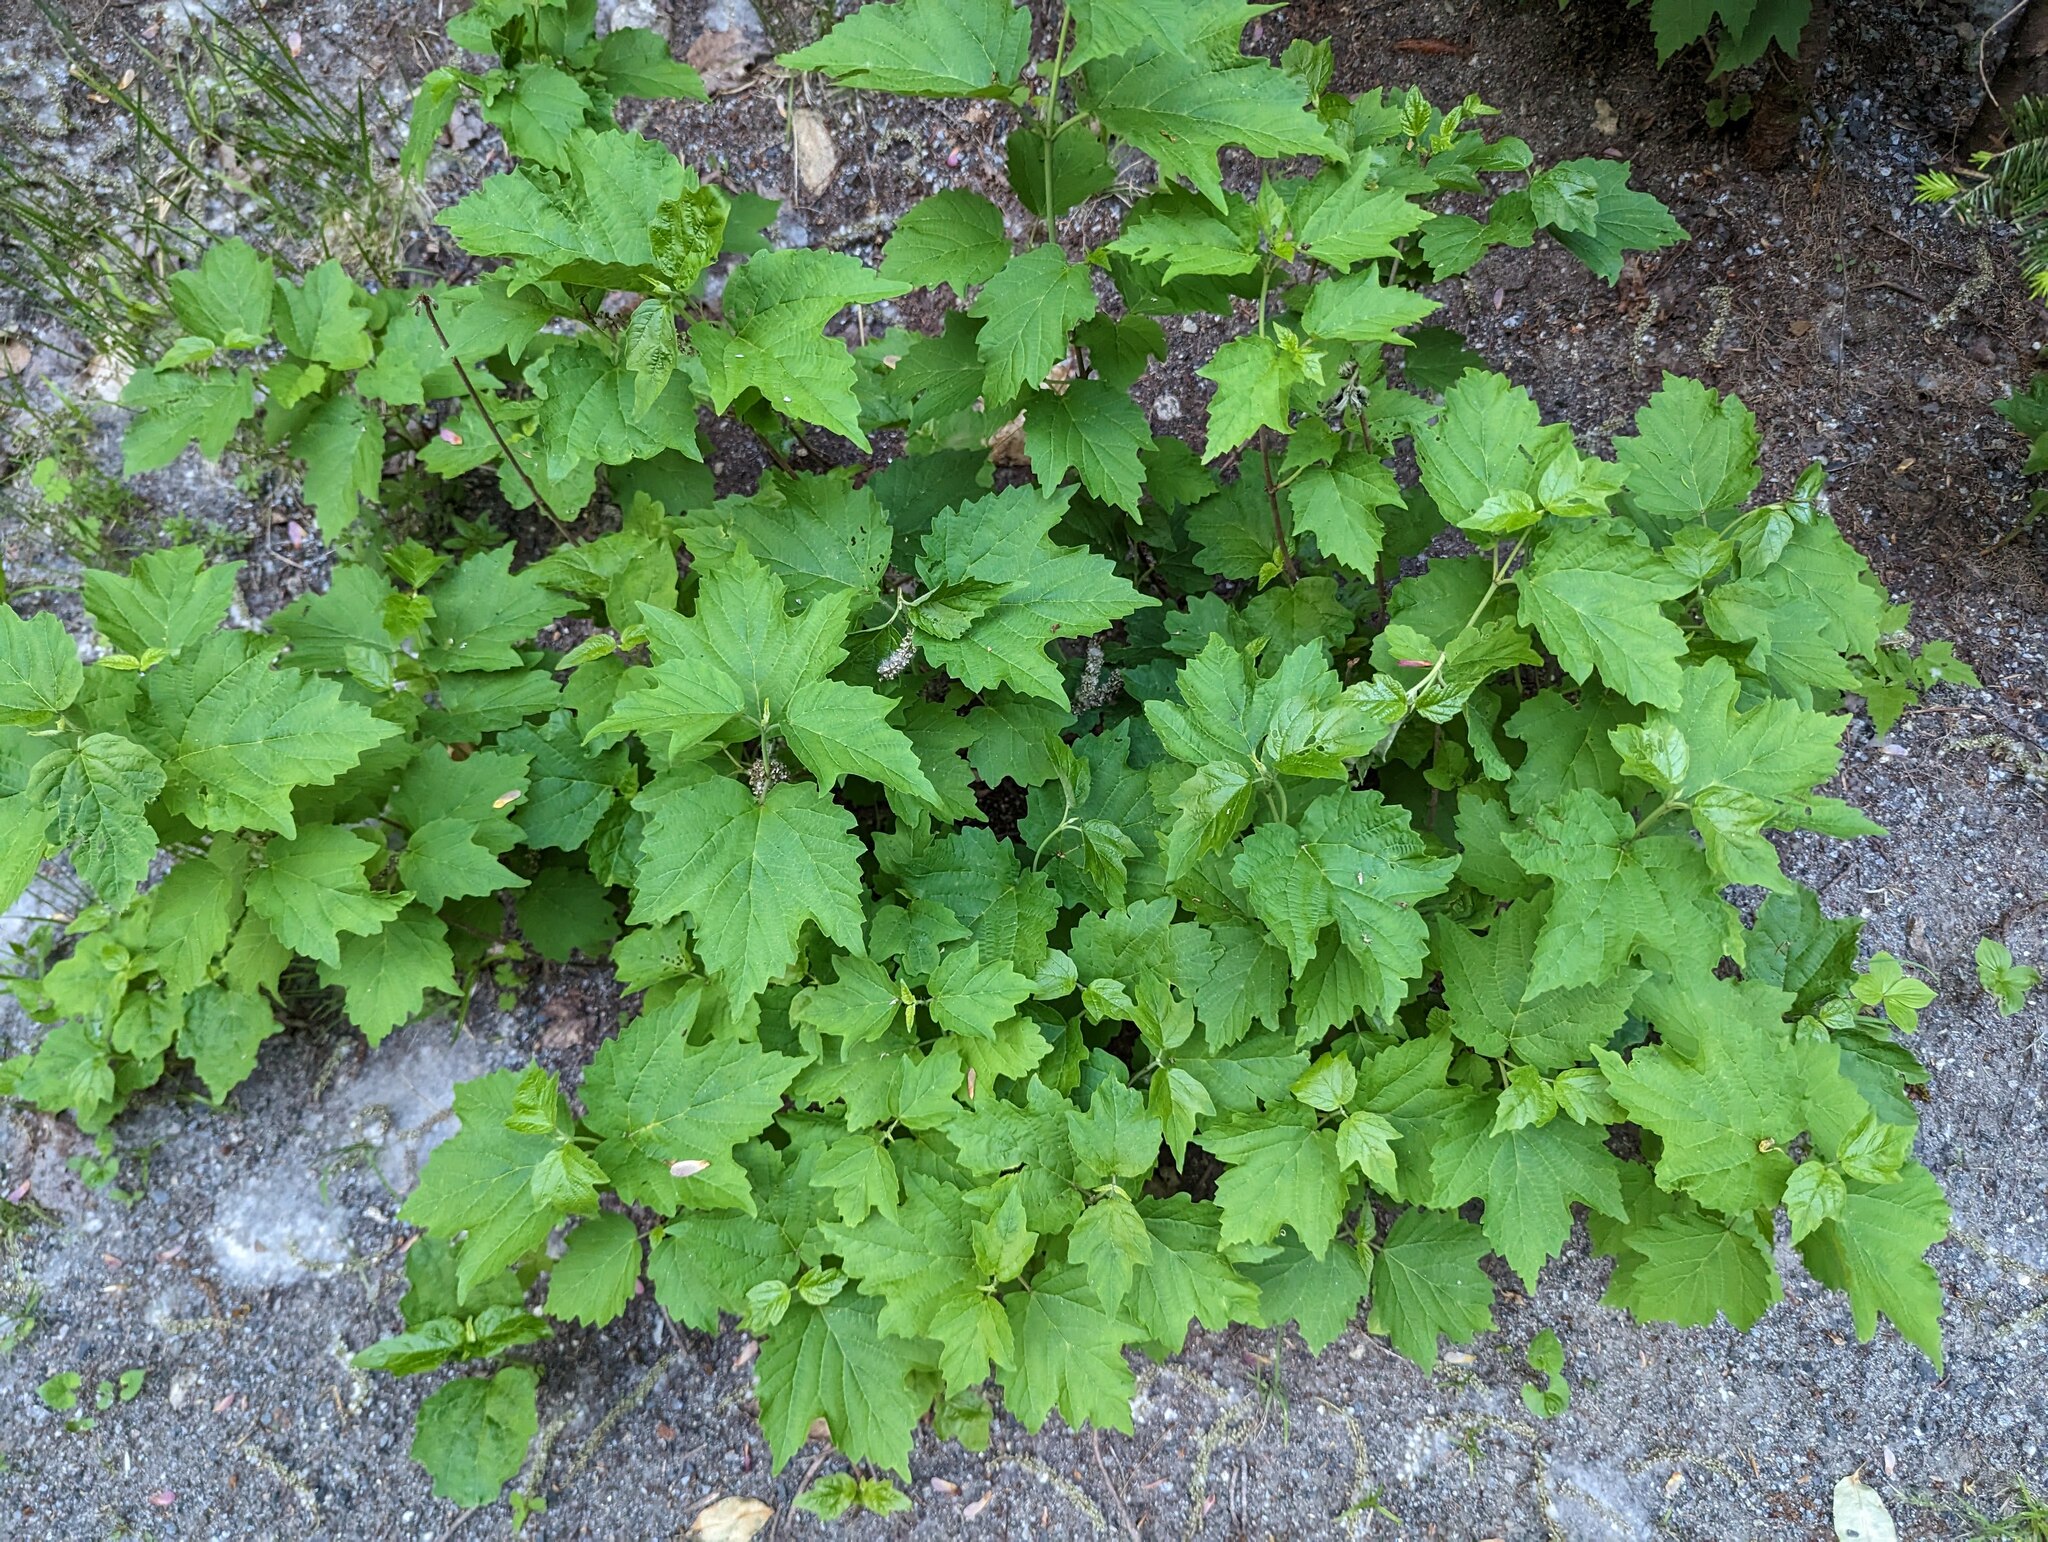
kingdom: Plantae
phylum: Tracheophyta
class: Magnoliopsida
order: Dipsacales
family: Viburnaceae
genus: Viburnum
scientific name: Viburnum acerifolium
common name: Dockmackie
